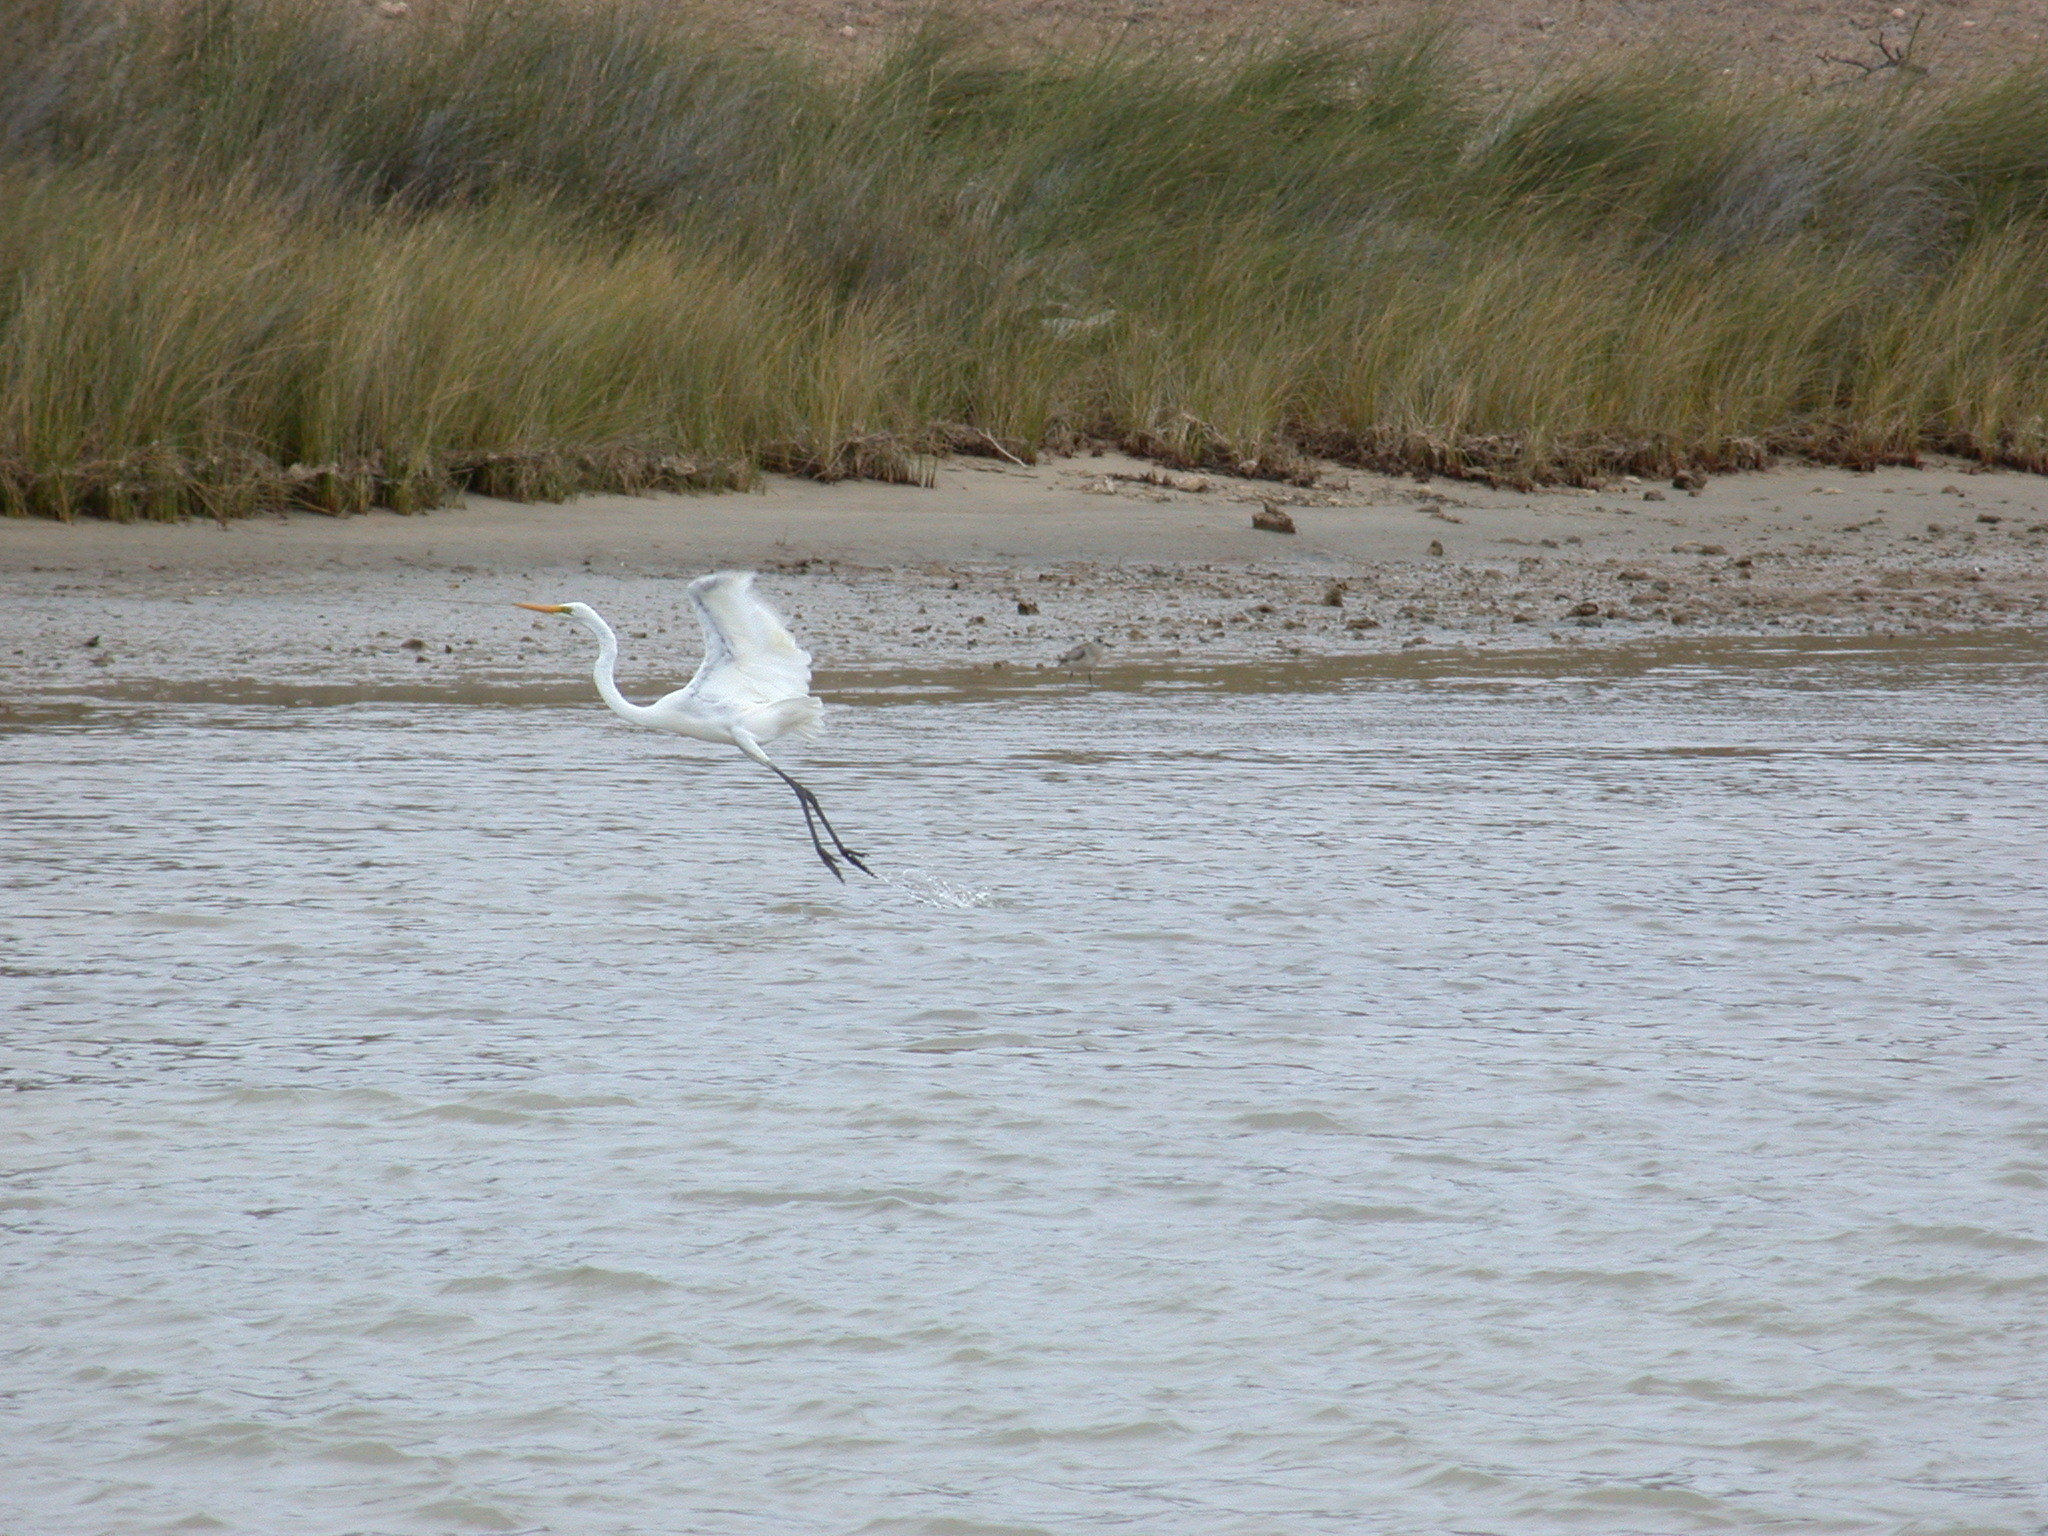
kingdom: Animalia
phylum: Chordata
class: Aves
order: Pelecaniformes
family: Ardeidae
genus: Ardea
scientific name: Ardea alba
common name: Great egret
